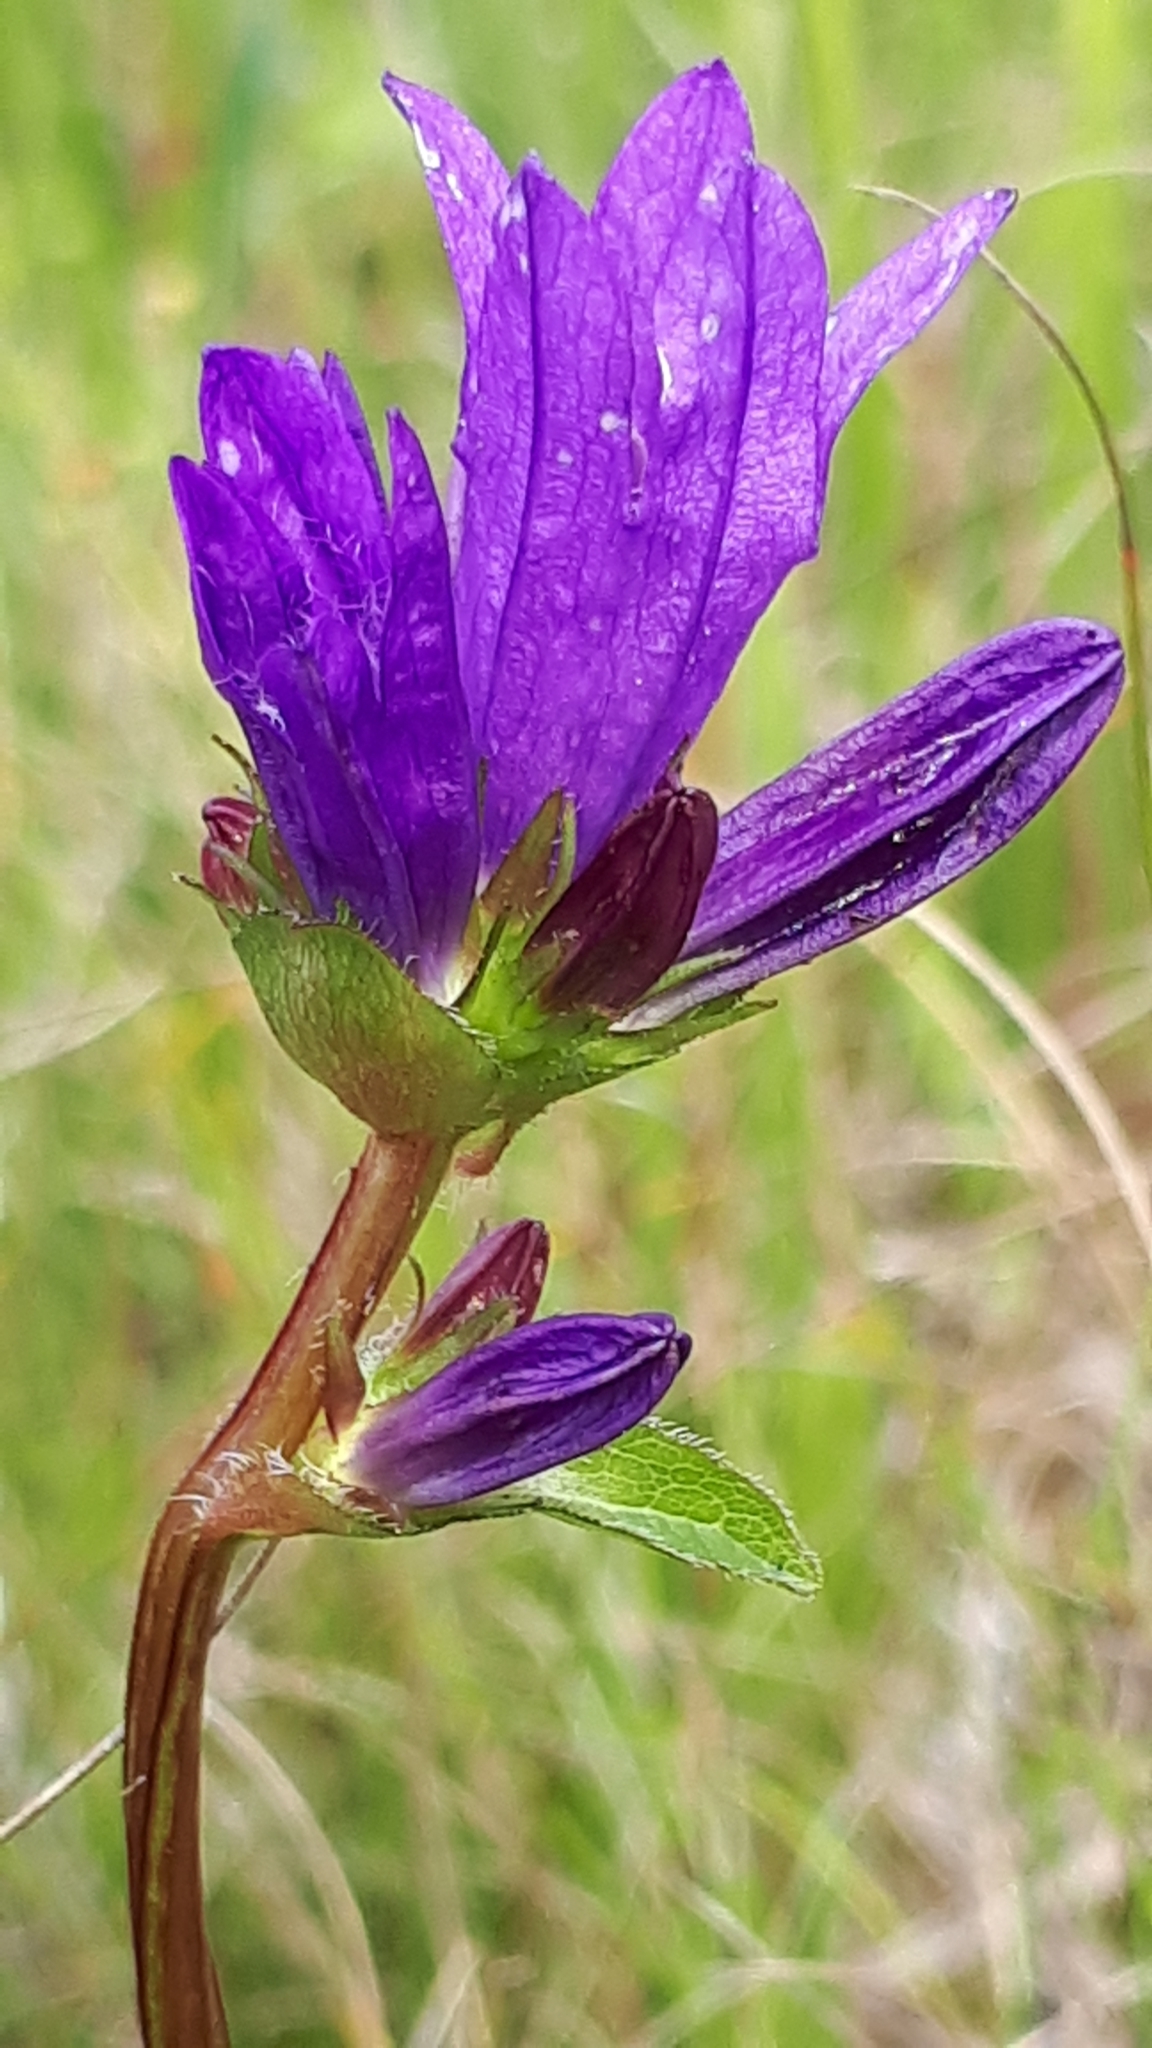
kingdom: Plantae
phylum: Tracheophyta
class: Magnoliopsida
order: Asterales
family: Campanulaceae
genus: Campanula
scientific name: Campanula glomerata
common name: Clustered bellflower
